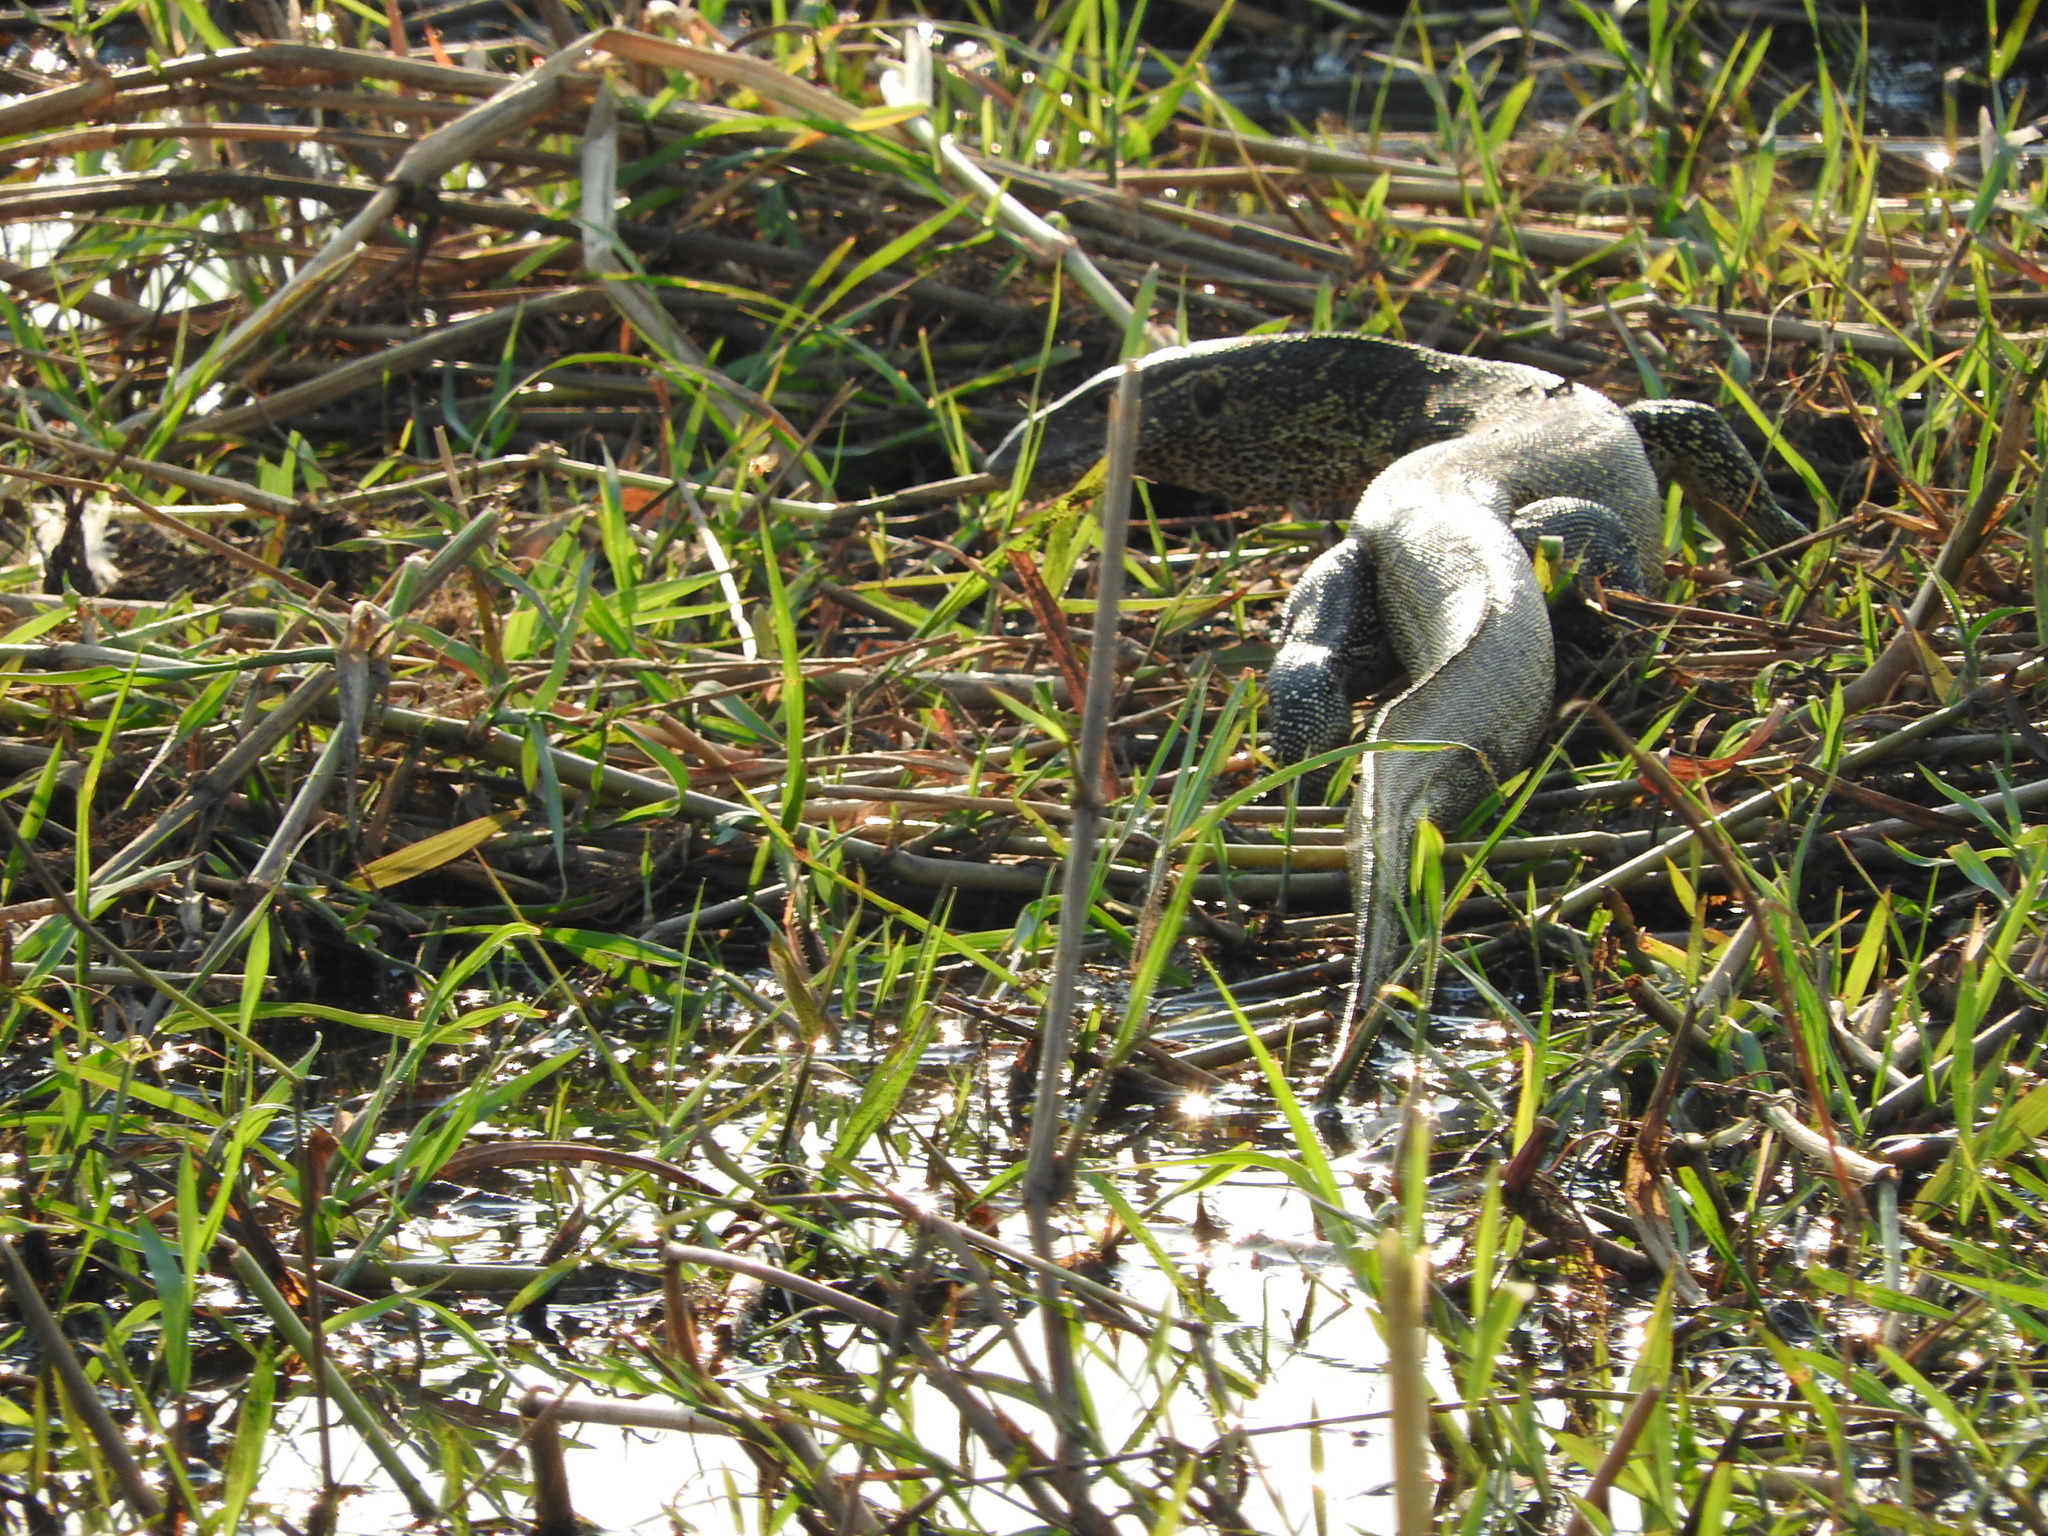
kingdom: Animalia
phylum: Chordata
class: Squamata
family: Varanidae
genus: Varanus
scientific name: Varanus niloticus
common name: Nile monitor
